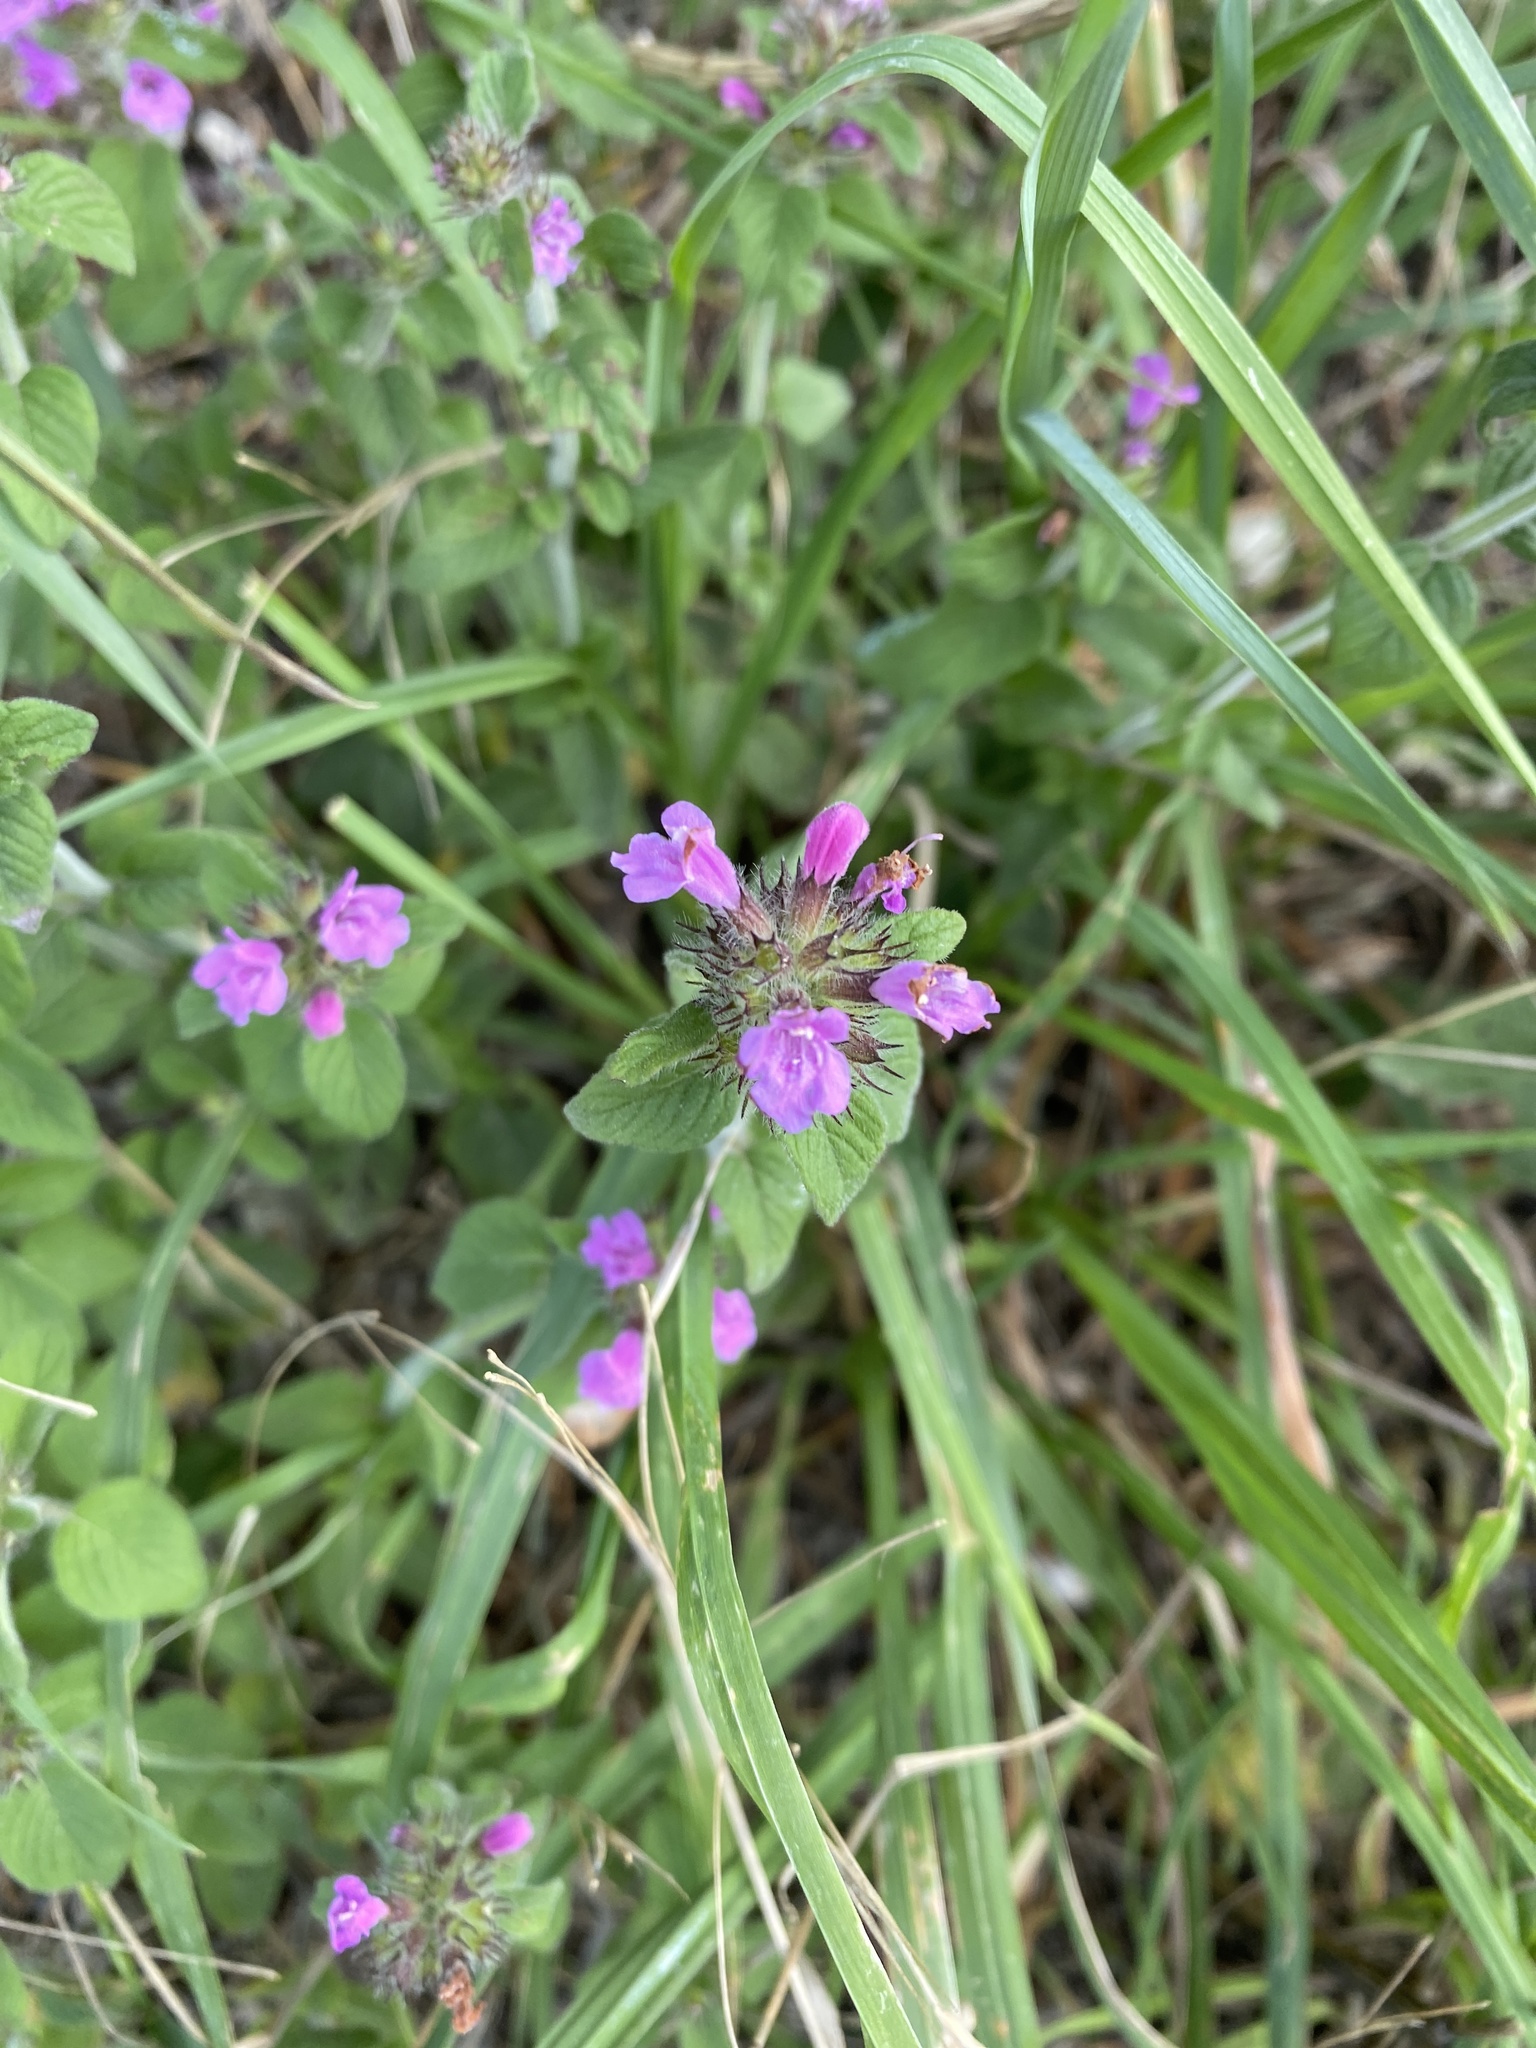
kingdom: Plantae
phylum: Tracheophyta
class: Magnoliopsida
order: Lamiales
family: Lamiaceae
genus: Clinopodium
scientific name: Clinopodium vulgare
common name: Wild basil
